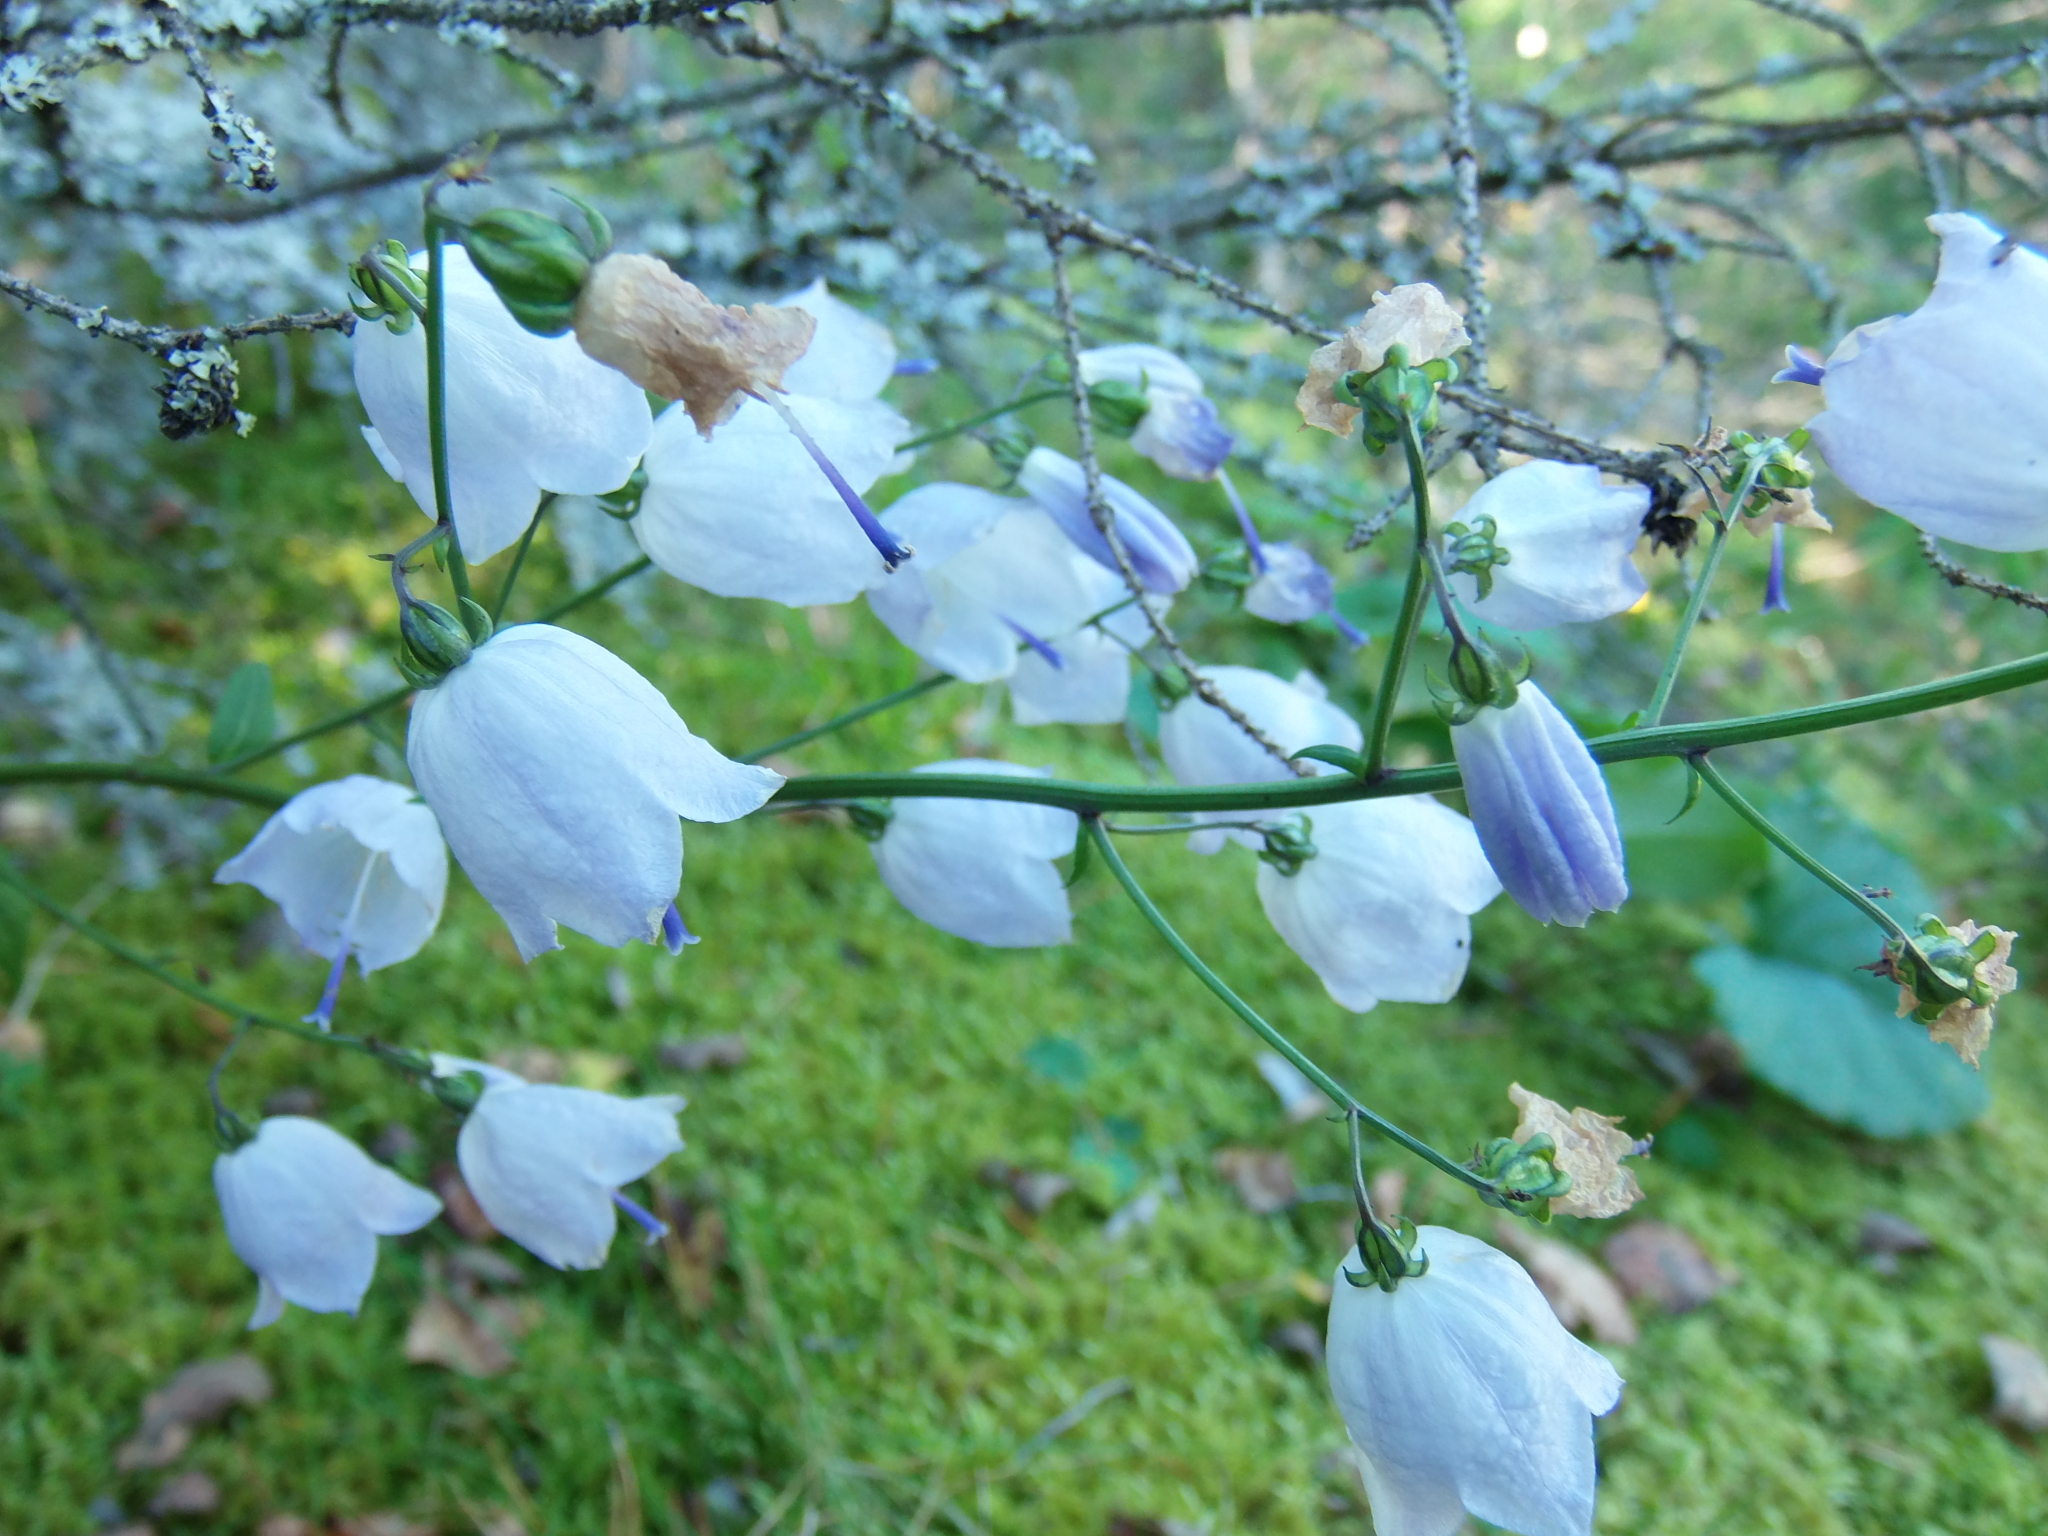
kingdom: Plantae
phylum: Tracheophyta
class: Magnoliopsida
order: Asterales
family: Campanulaceae
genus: Adenophora
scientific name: Adenophora liliifolia
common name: Lilyleaf ladybells
